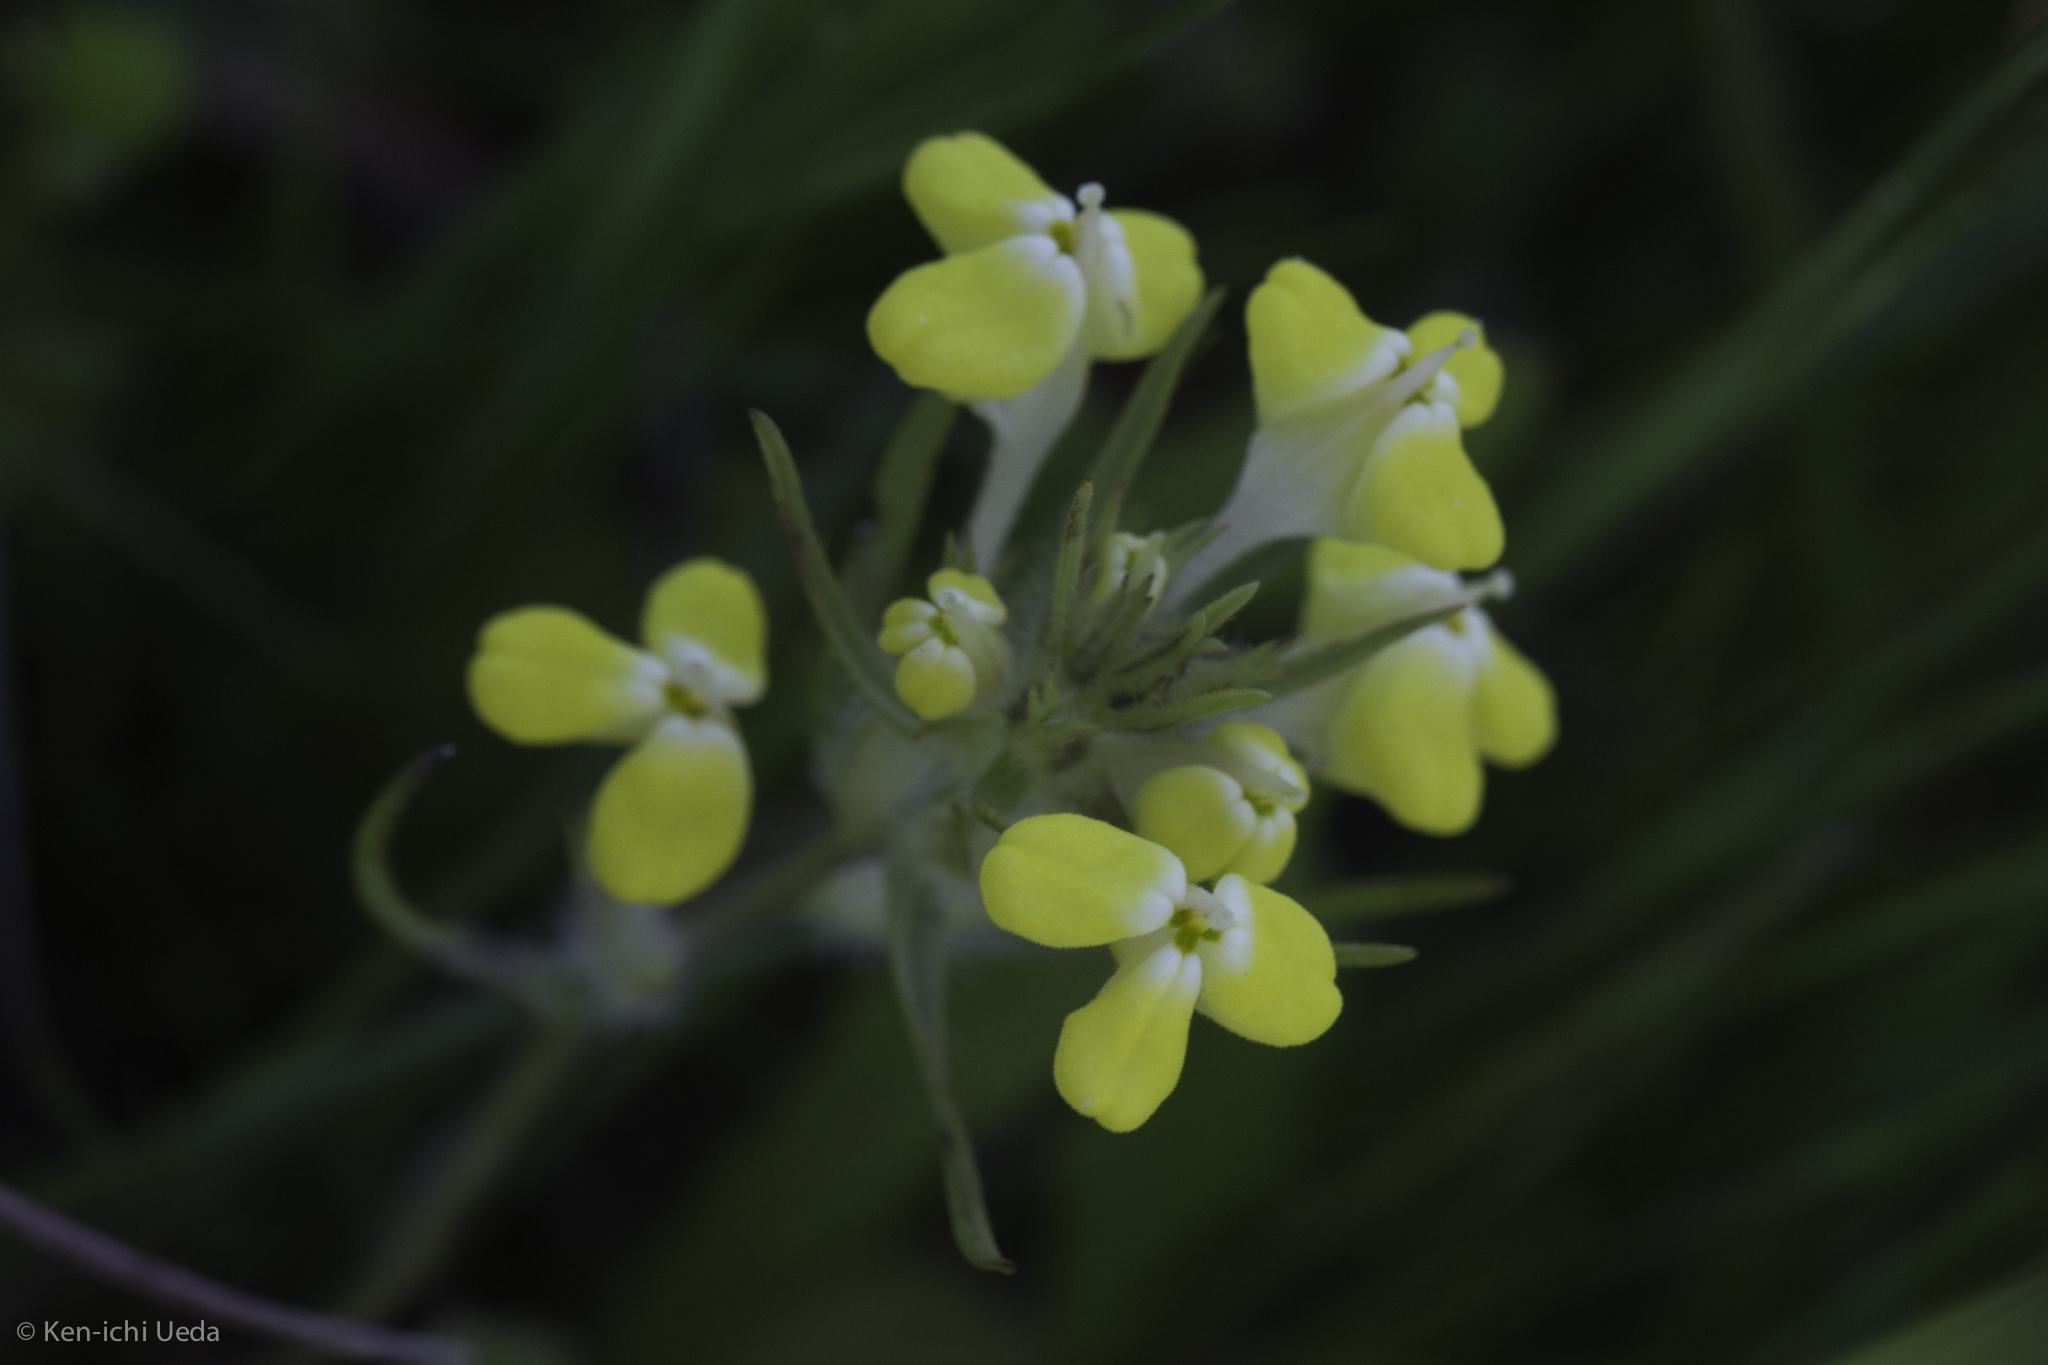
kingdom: Plantae
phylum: Tracheophyta
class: Magnoliopsida
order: Lamiales
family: Orobanchaceae
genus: Castilleja
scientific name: Castilleja campestris
